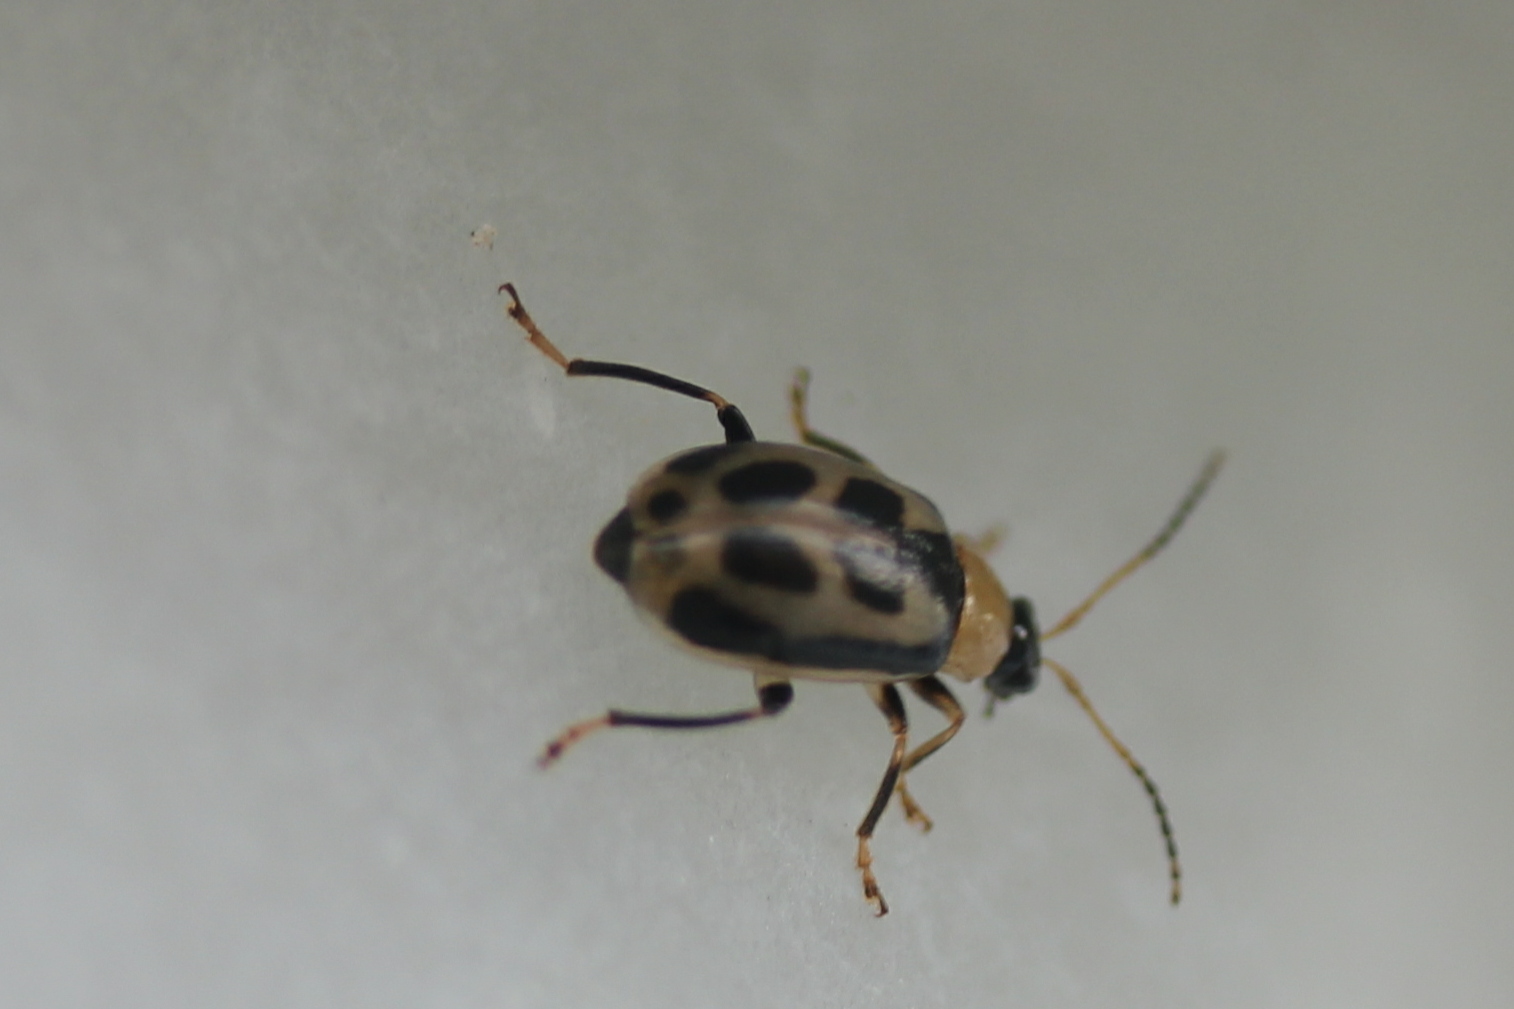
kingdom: Animalia
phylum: Arthropoda
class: Insecta
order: Coleoptera
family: Chrysomelidae
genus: Cerotoma
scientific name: Cerotoma trifurcata
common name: Bean leaf beetle
